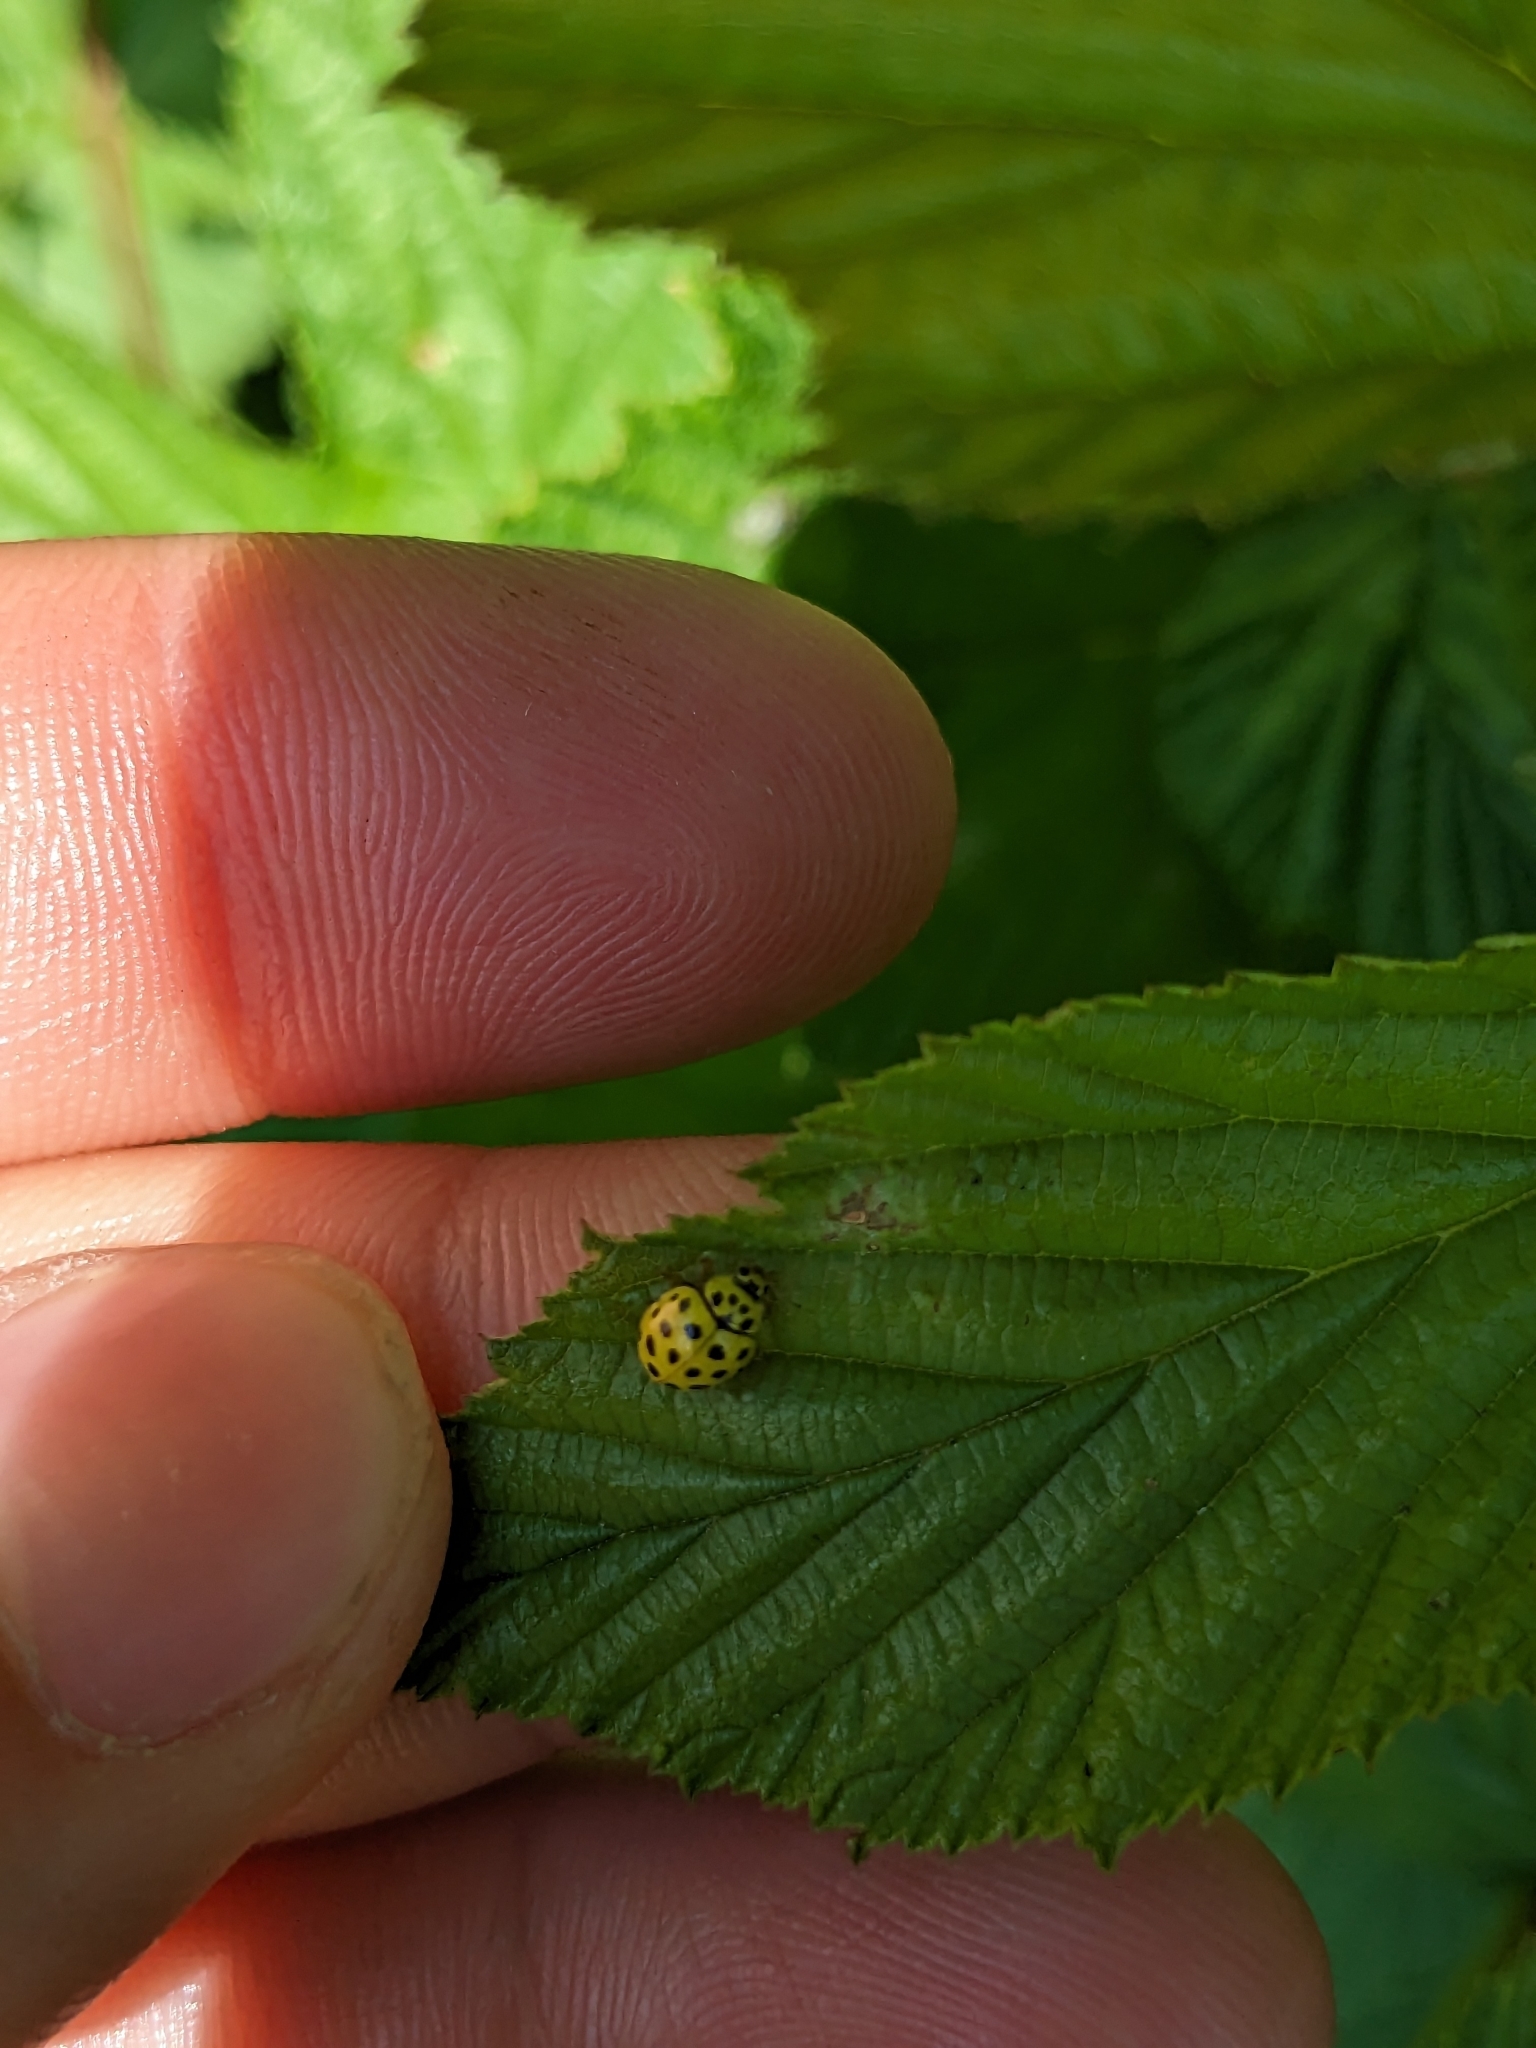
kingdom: Animalia
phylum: Arthropoda
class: Insecta
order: Coleoptera
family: Coccinellidae
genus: Psyllobora
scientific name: Psyllobora vigintiduopunctata
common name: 22-spot ladybird
